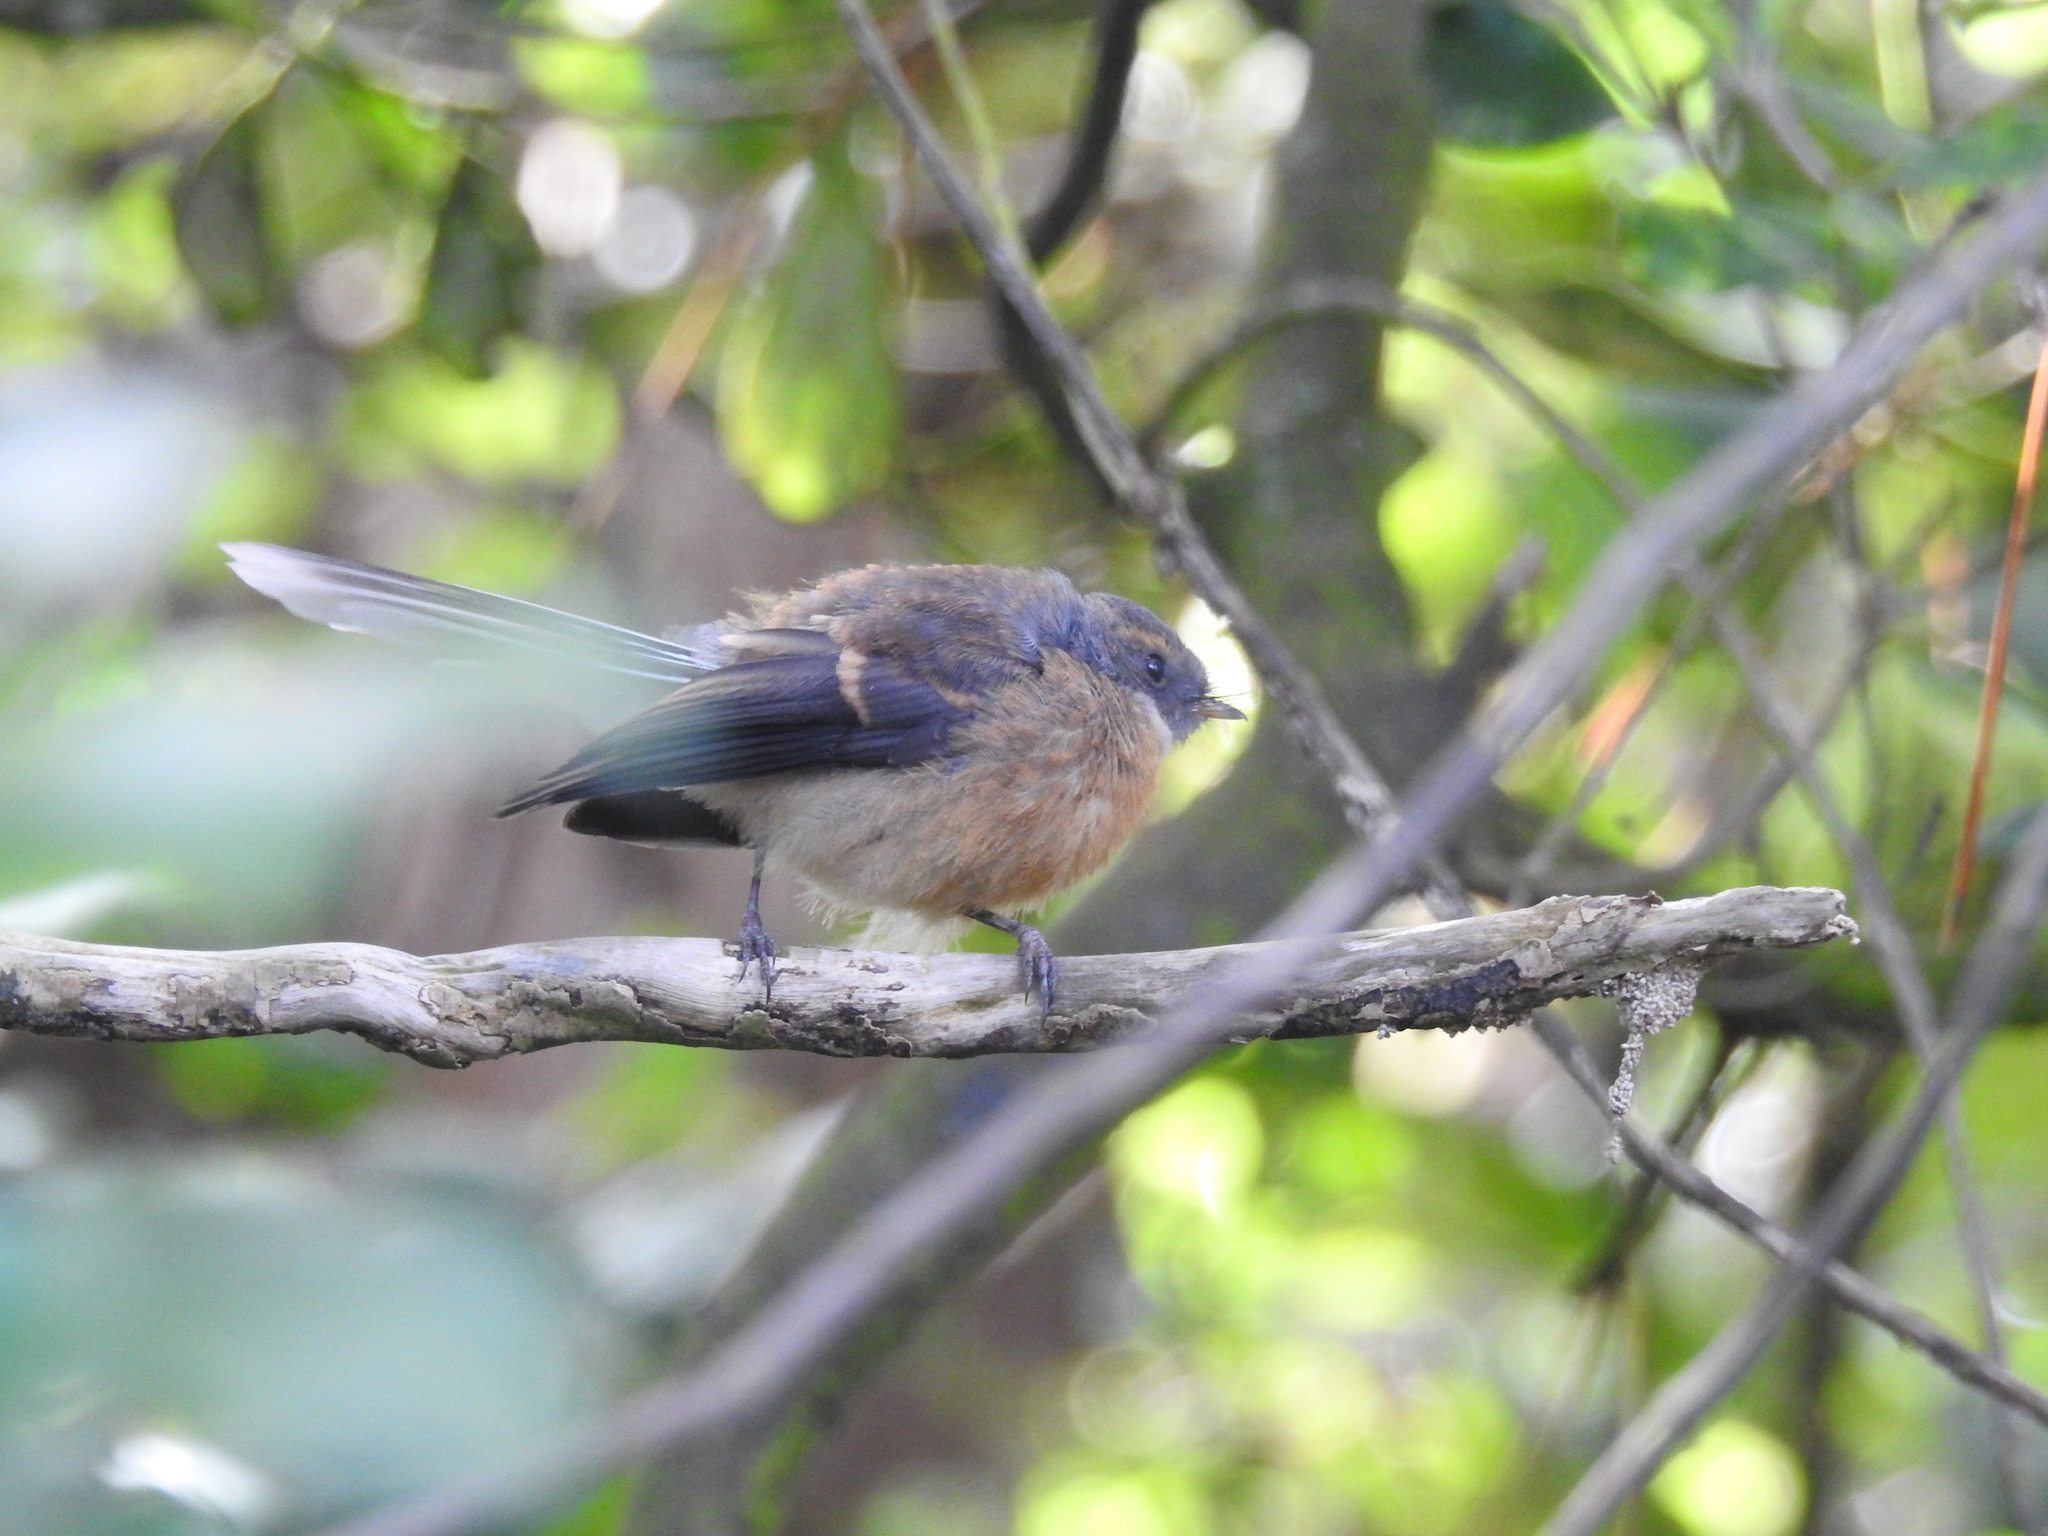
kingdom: Animalia
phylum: Chordata
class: Aves
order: Passeriformes
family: Rhipiduridae
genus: Rhipidura
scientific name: Rhipidura fuliginosa
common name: New zealand fantail
